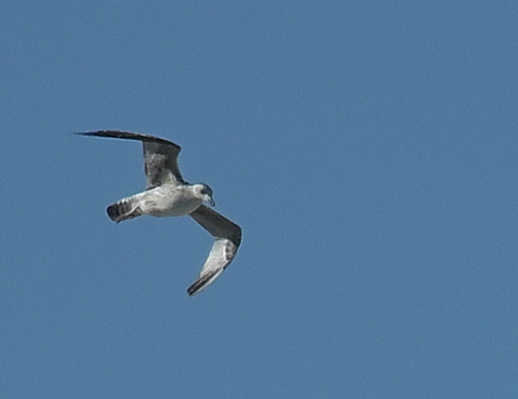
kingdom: Animalia
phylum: Chordata
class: Aves
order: Charadriiformes
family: Laridae
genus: Larus
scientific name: Larus
